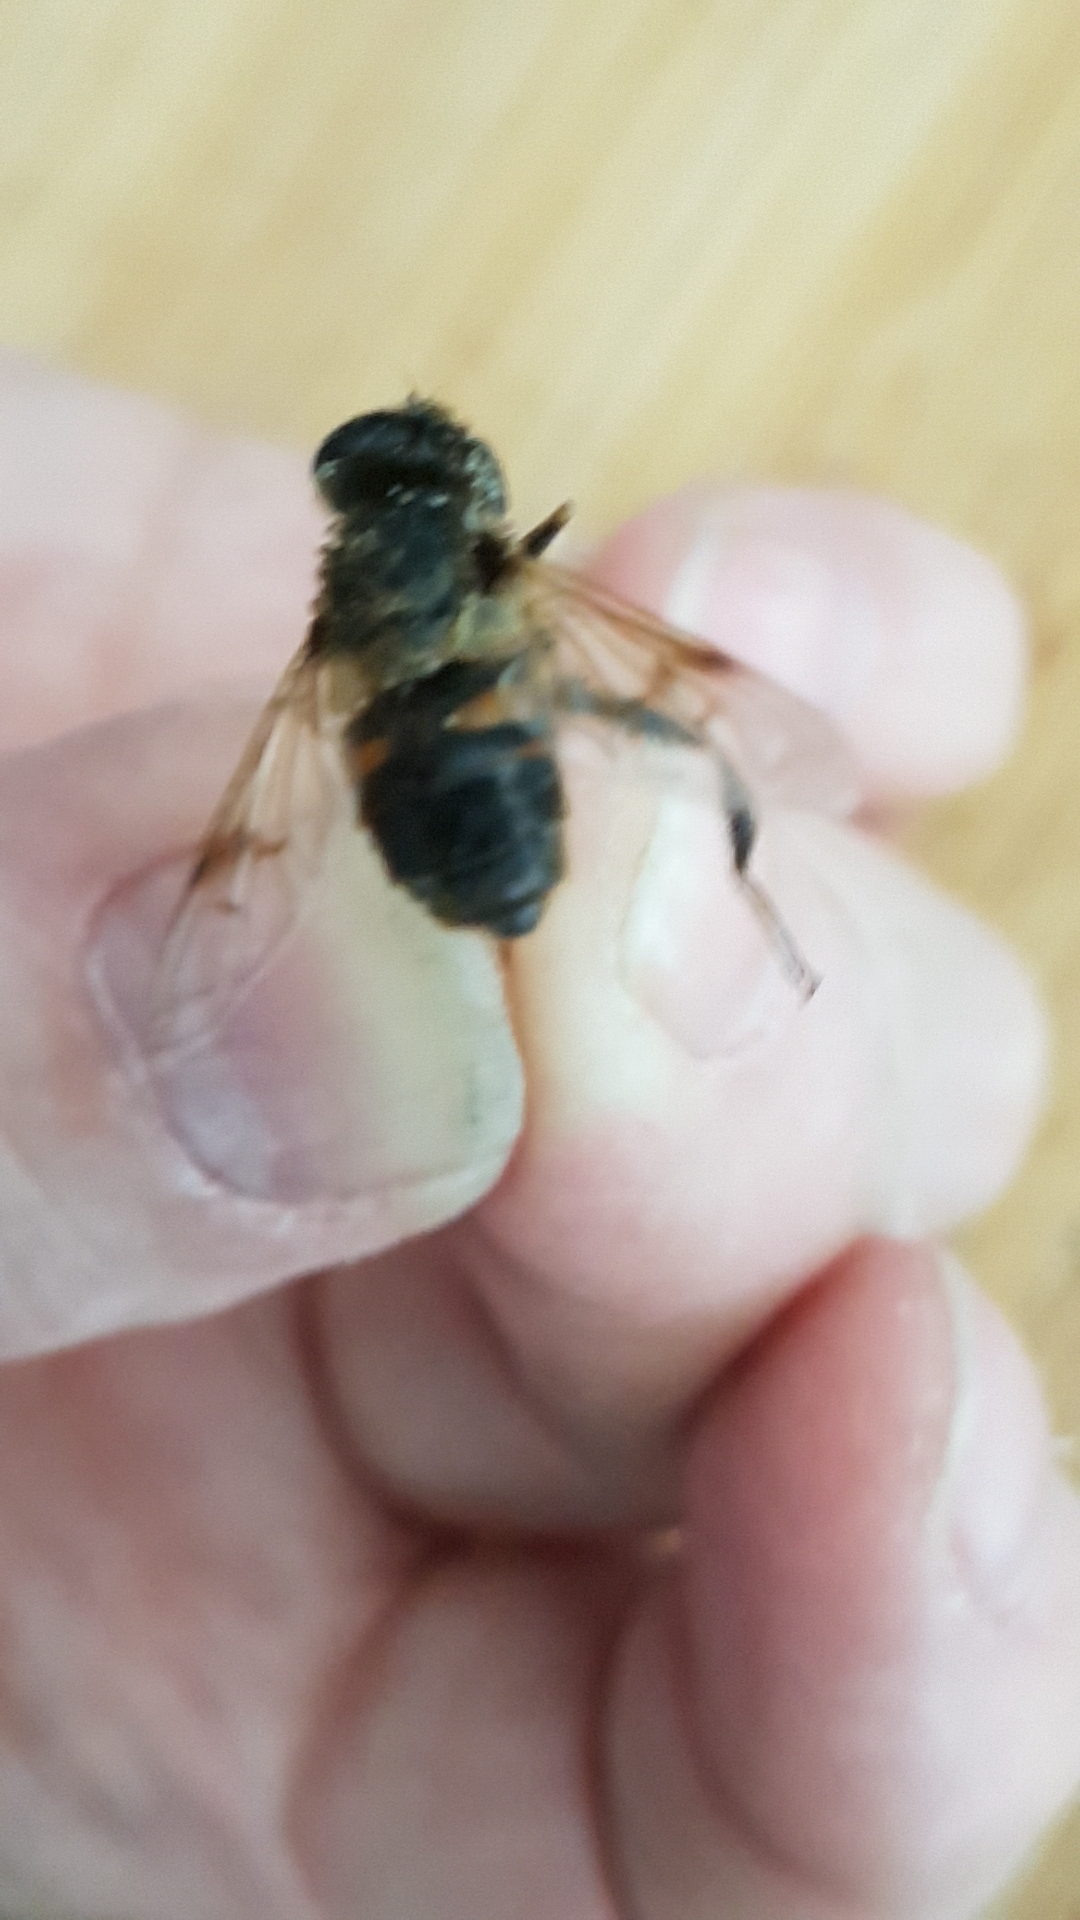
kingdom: Animalia
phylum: Arthropoda
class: Insecta
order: Diptera
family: Syrphidae
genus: Eristalis
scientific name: Eristalis tenax
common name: Drone fly
